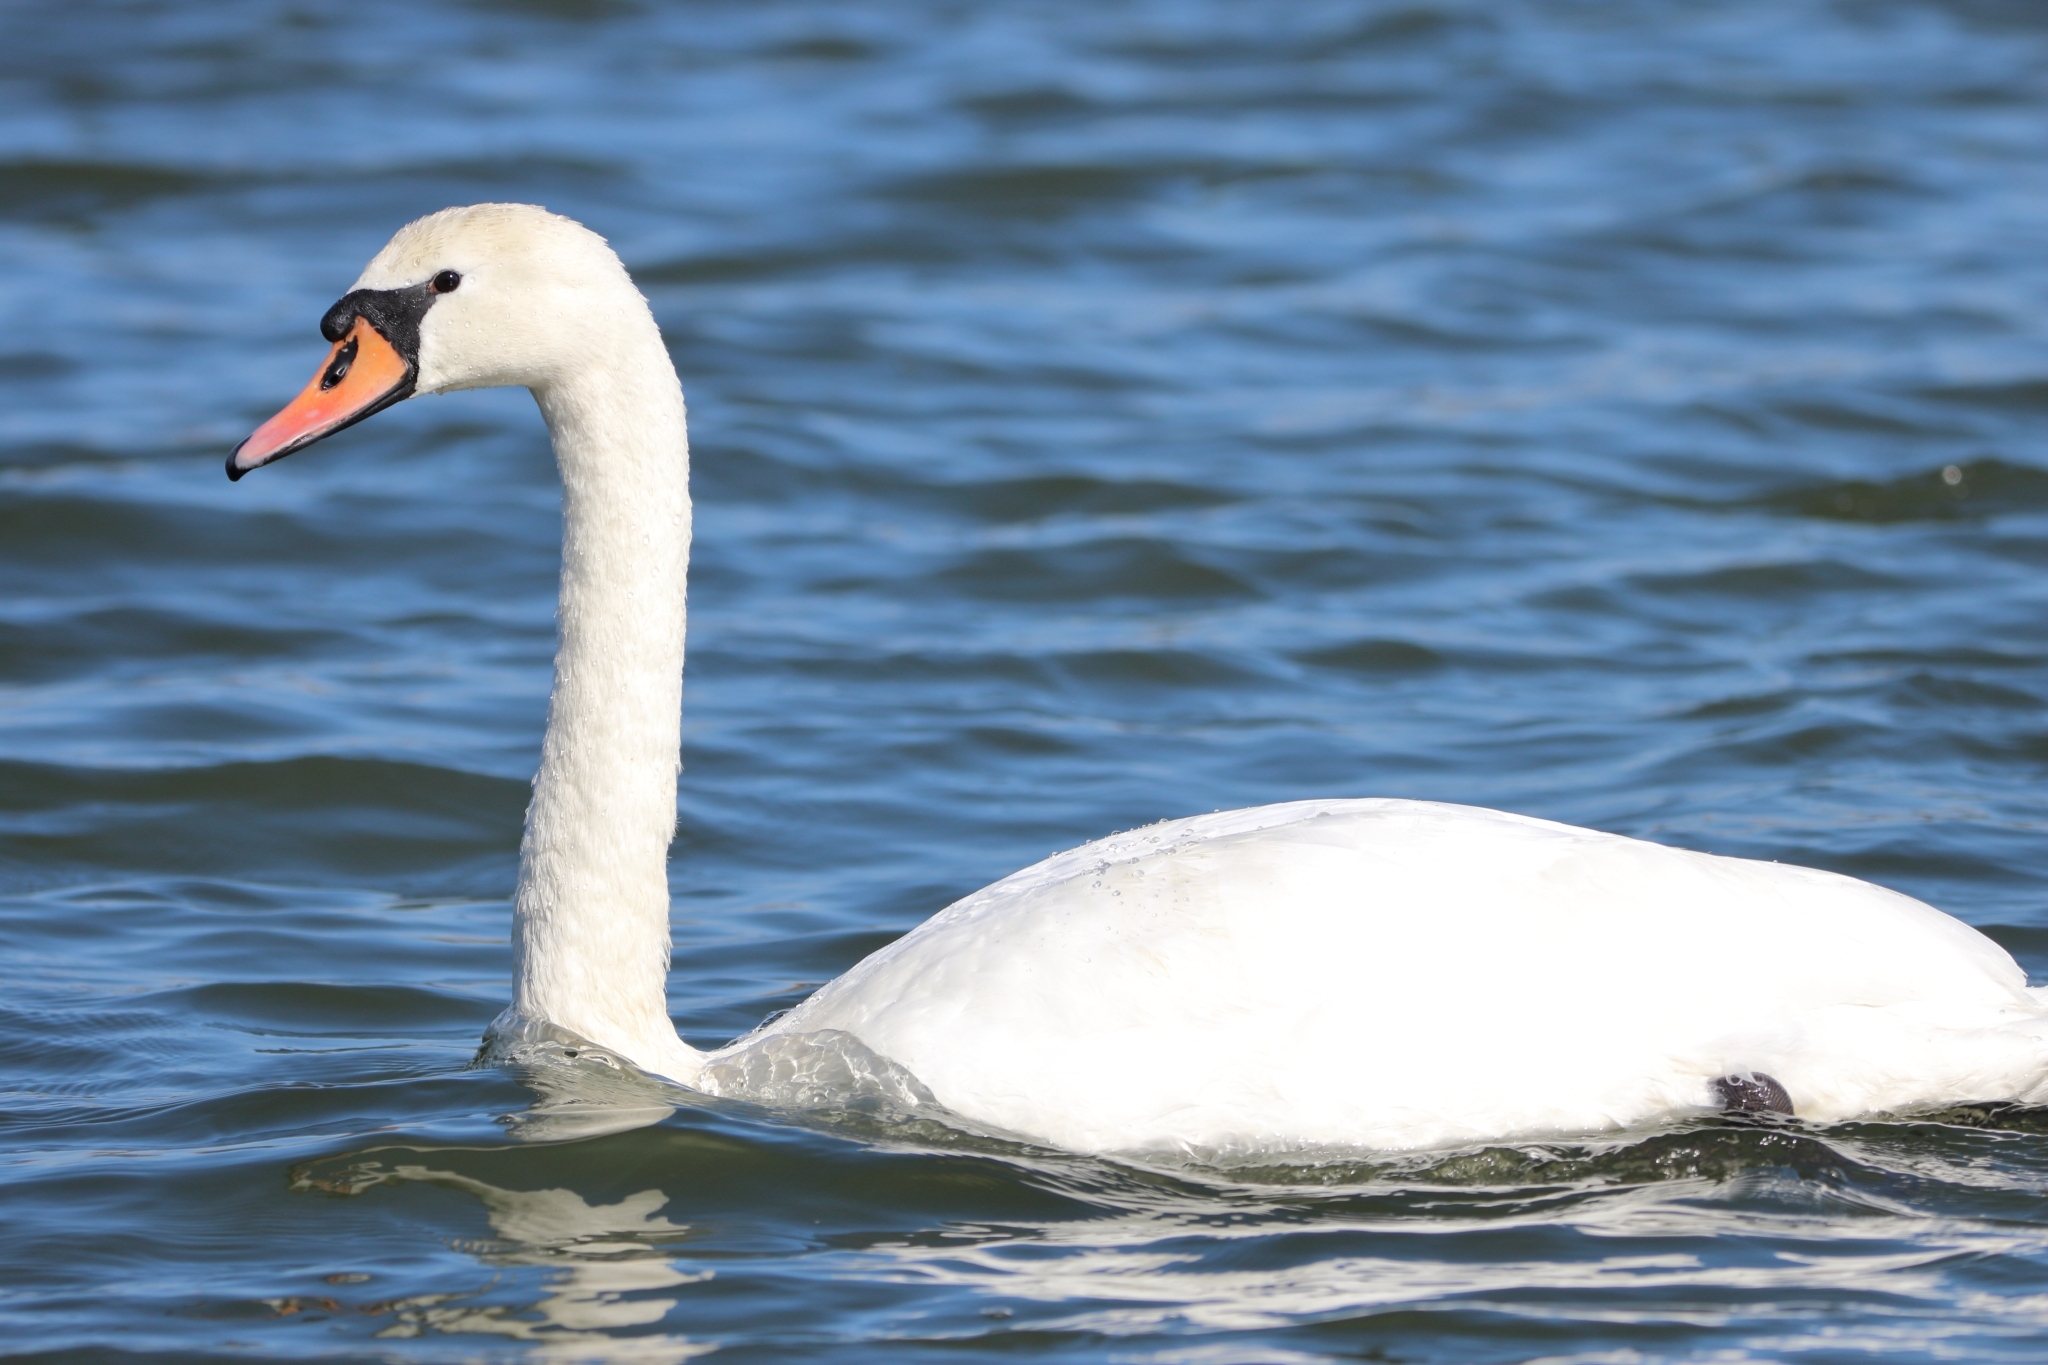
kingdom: Animalia
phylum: Chordata
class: Aves
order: Anseriformes
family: Anatidae
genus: Cygnus
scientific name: Cygnus olor
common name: Mute swan
